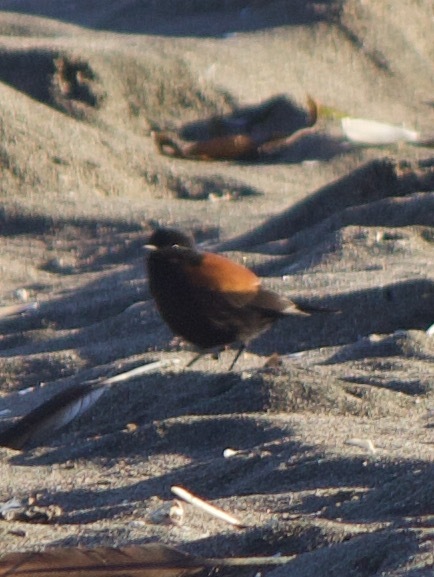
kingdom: Animalia
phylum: Chordata
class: Aves
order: Passeriformes
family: Tyrannidae
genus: Lessonia
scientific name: Lessonia rufa
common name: Austral negrito
